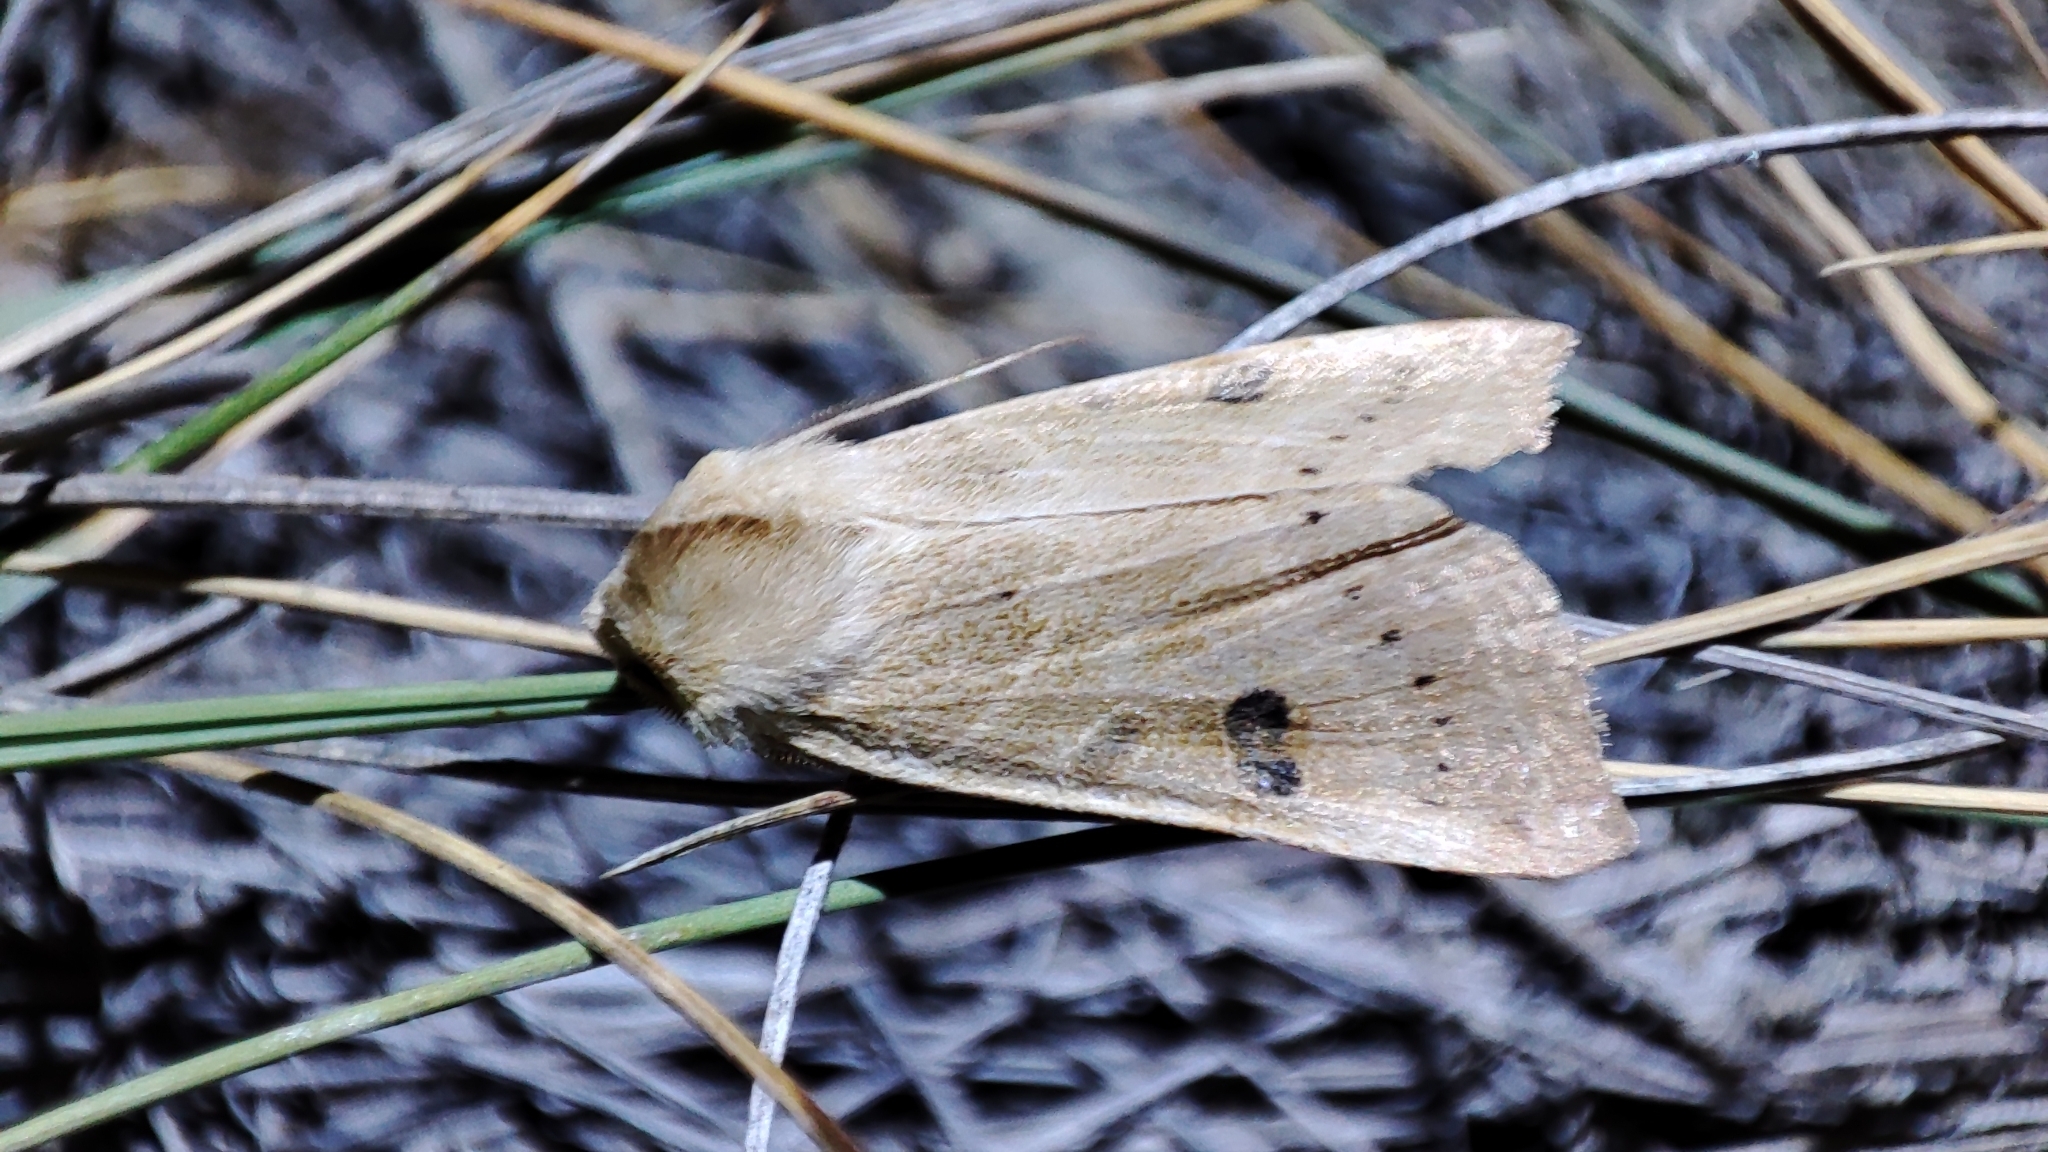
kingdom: Animalia
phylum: Arthropoda
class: Insecta
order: Lepidoptera
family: Noctuidae
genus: Miniphila
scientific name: Miniphila
